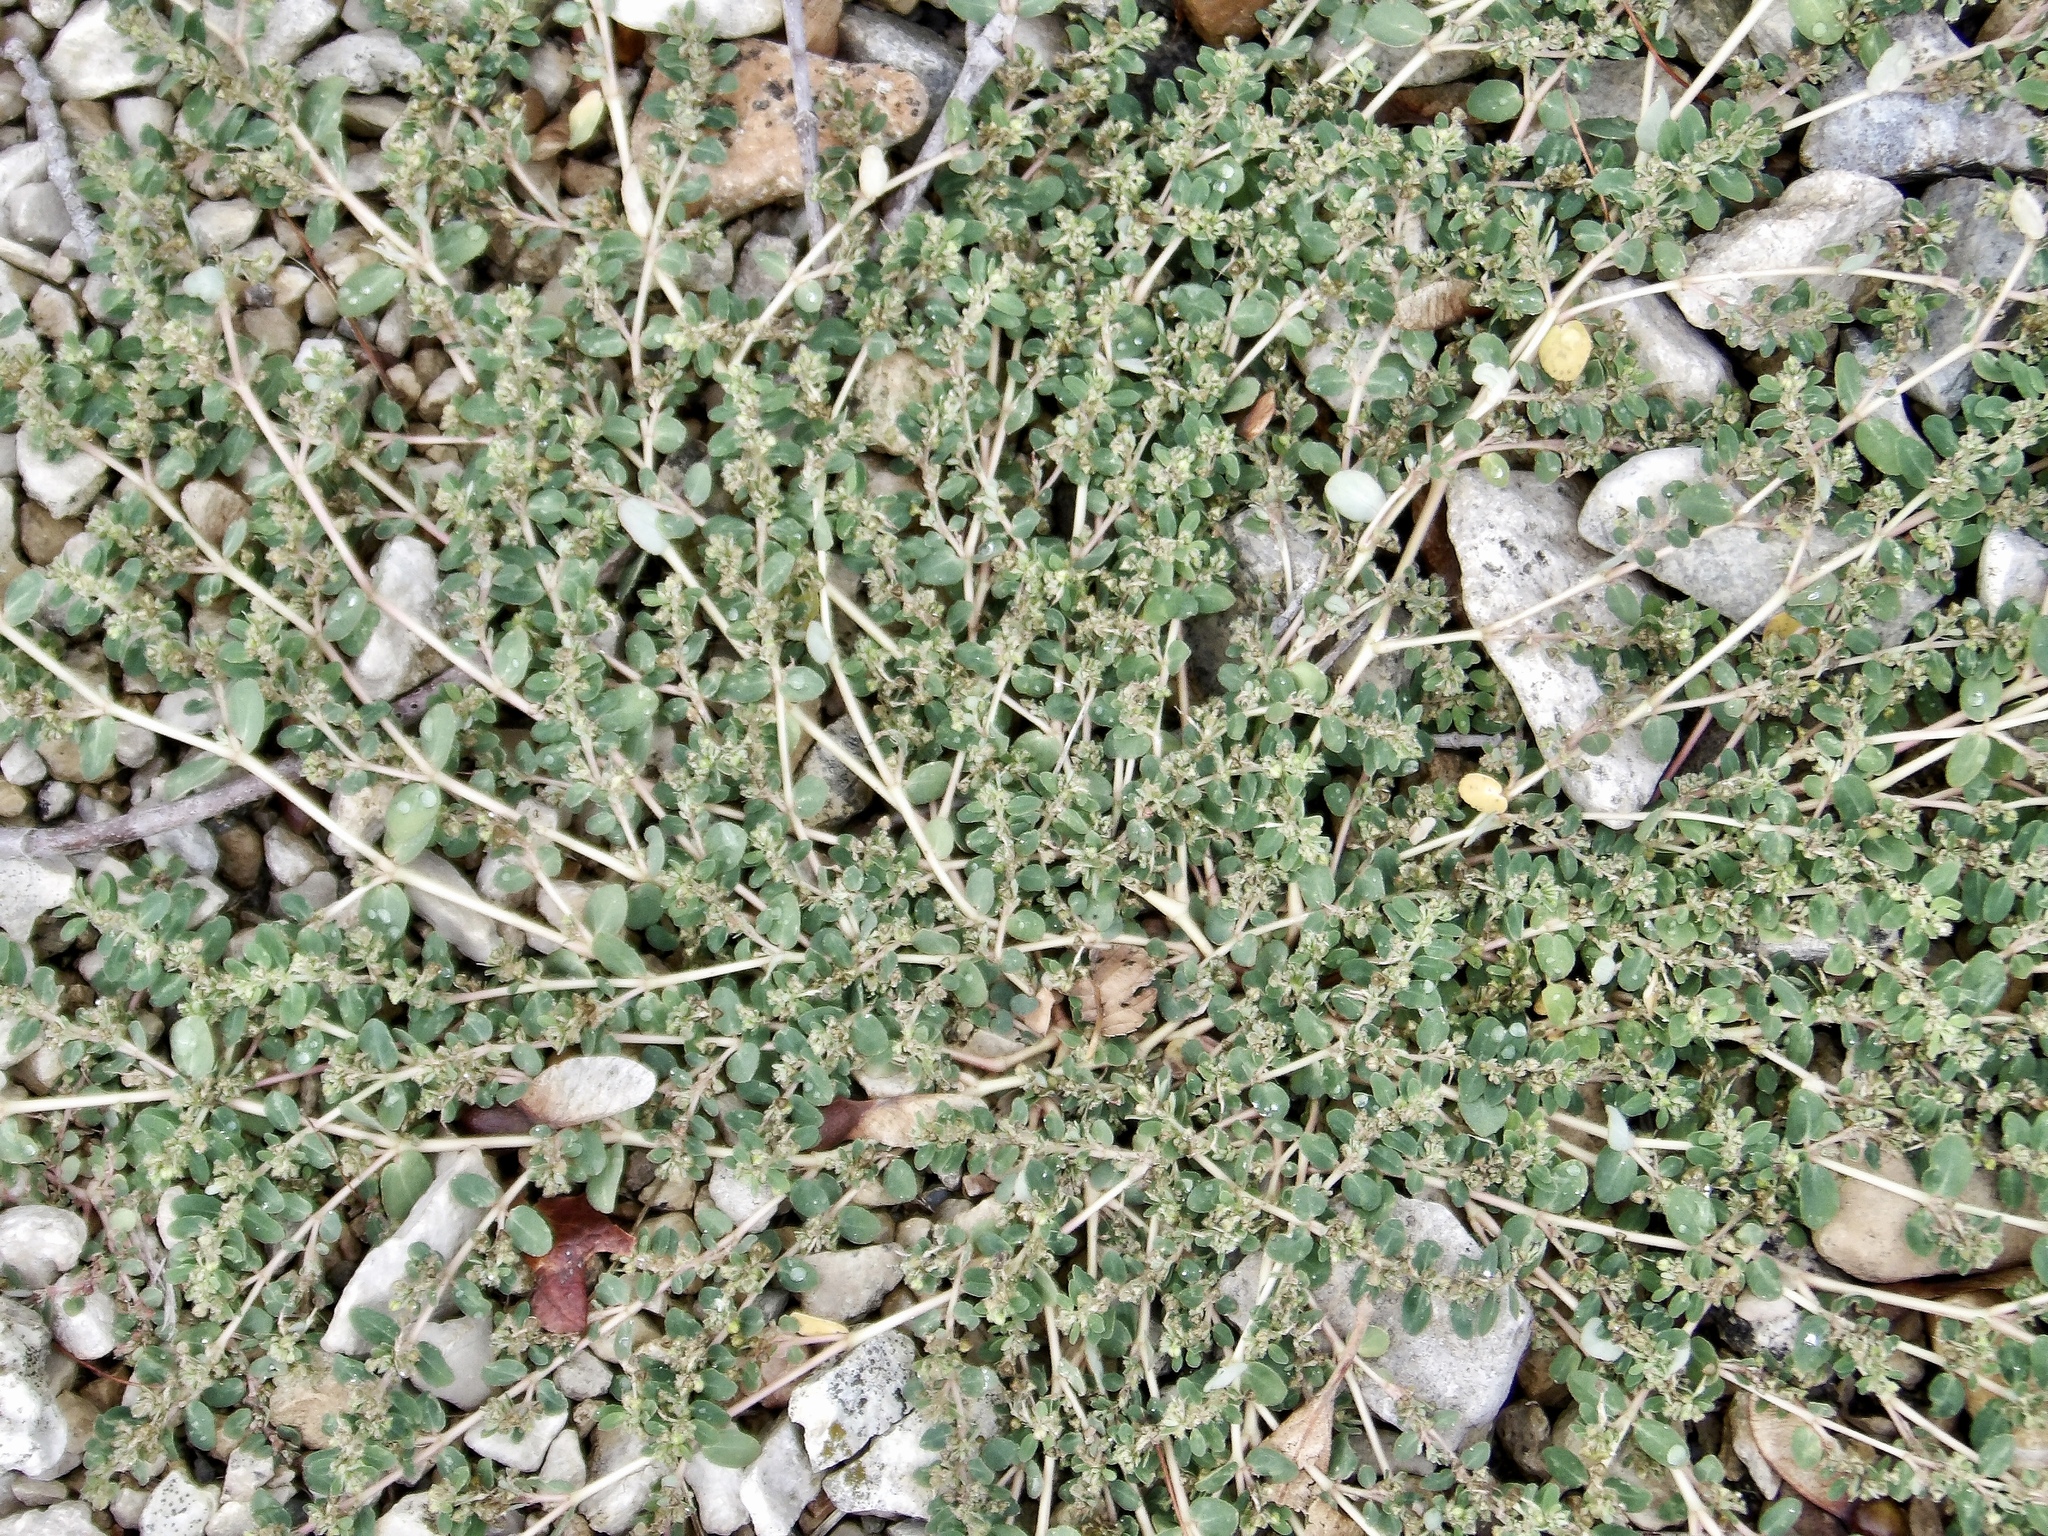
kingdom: Plantae
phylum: Tracheophyta
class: Magnoliopsida
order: Malpighiales
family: Euphorbiaceae
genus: Euphorbia
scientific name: Euphorbia prostrata
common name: Prostrate sandmat
